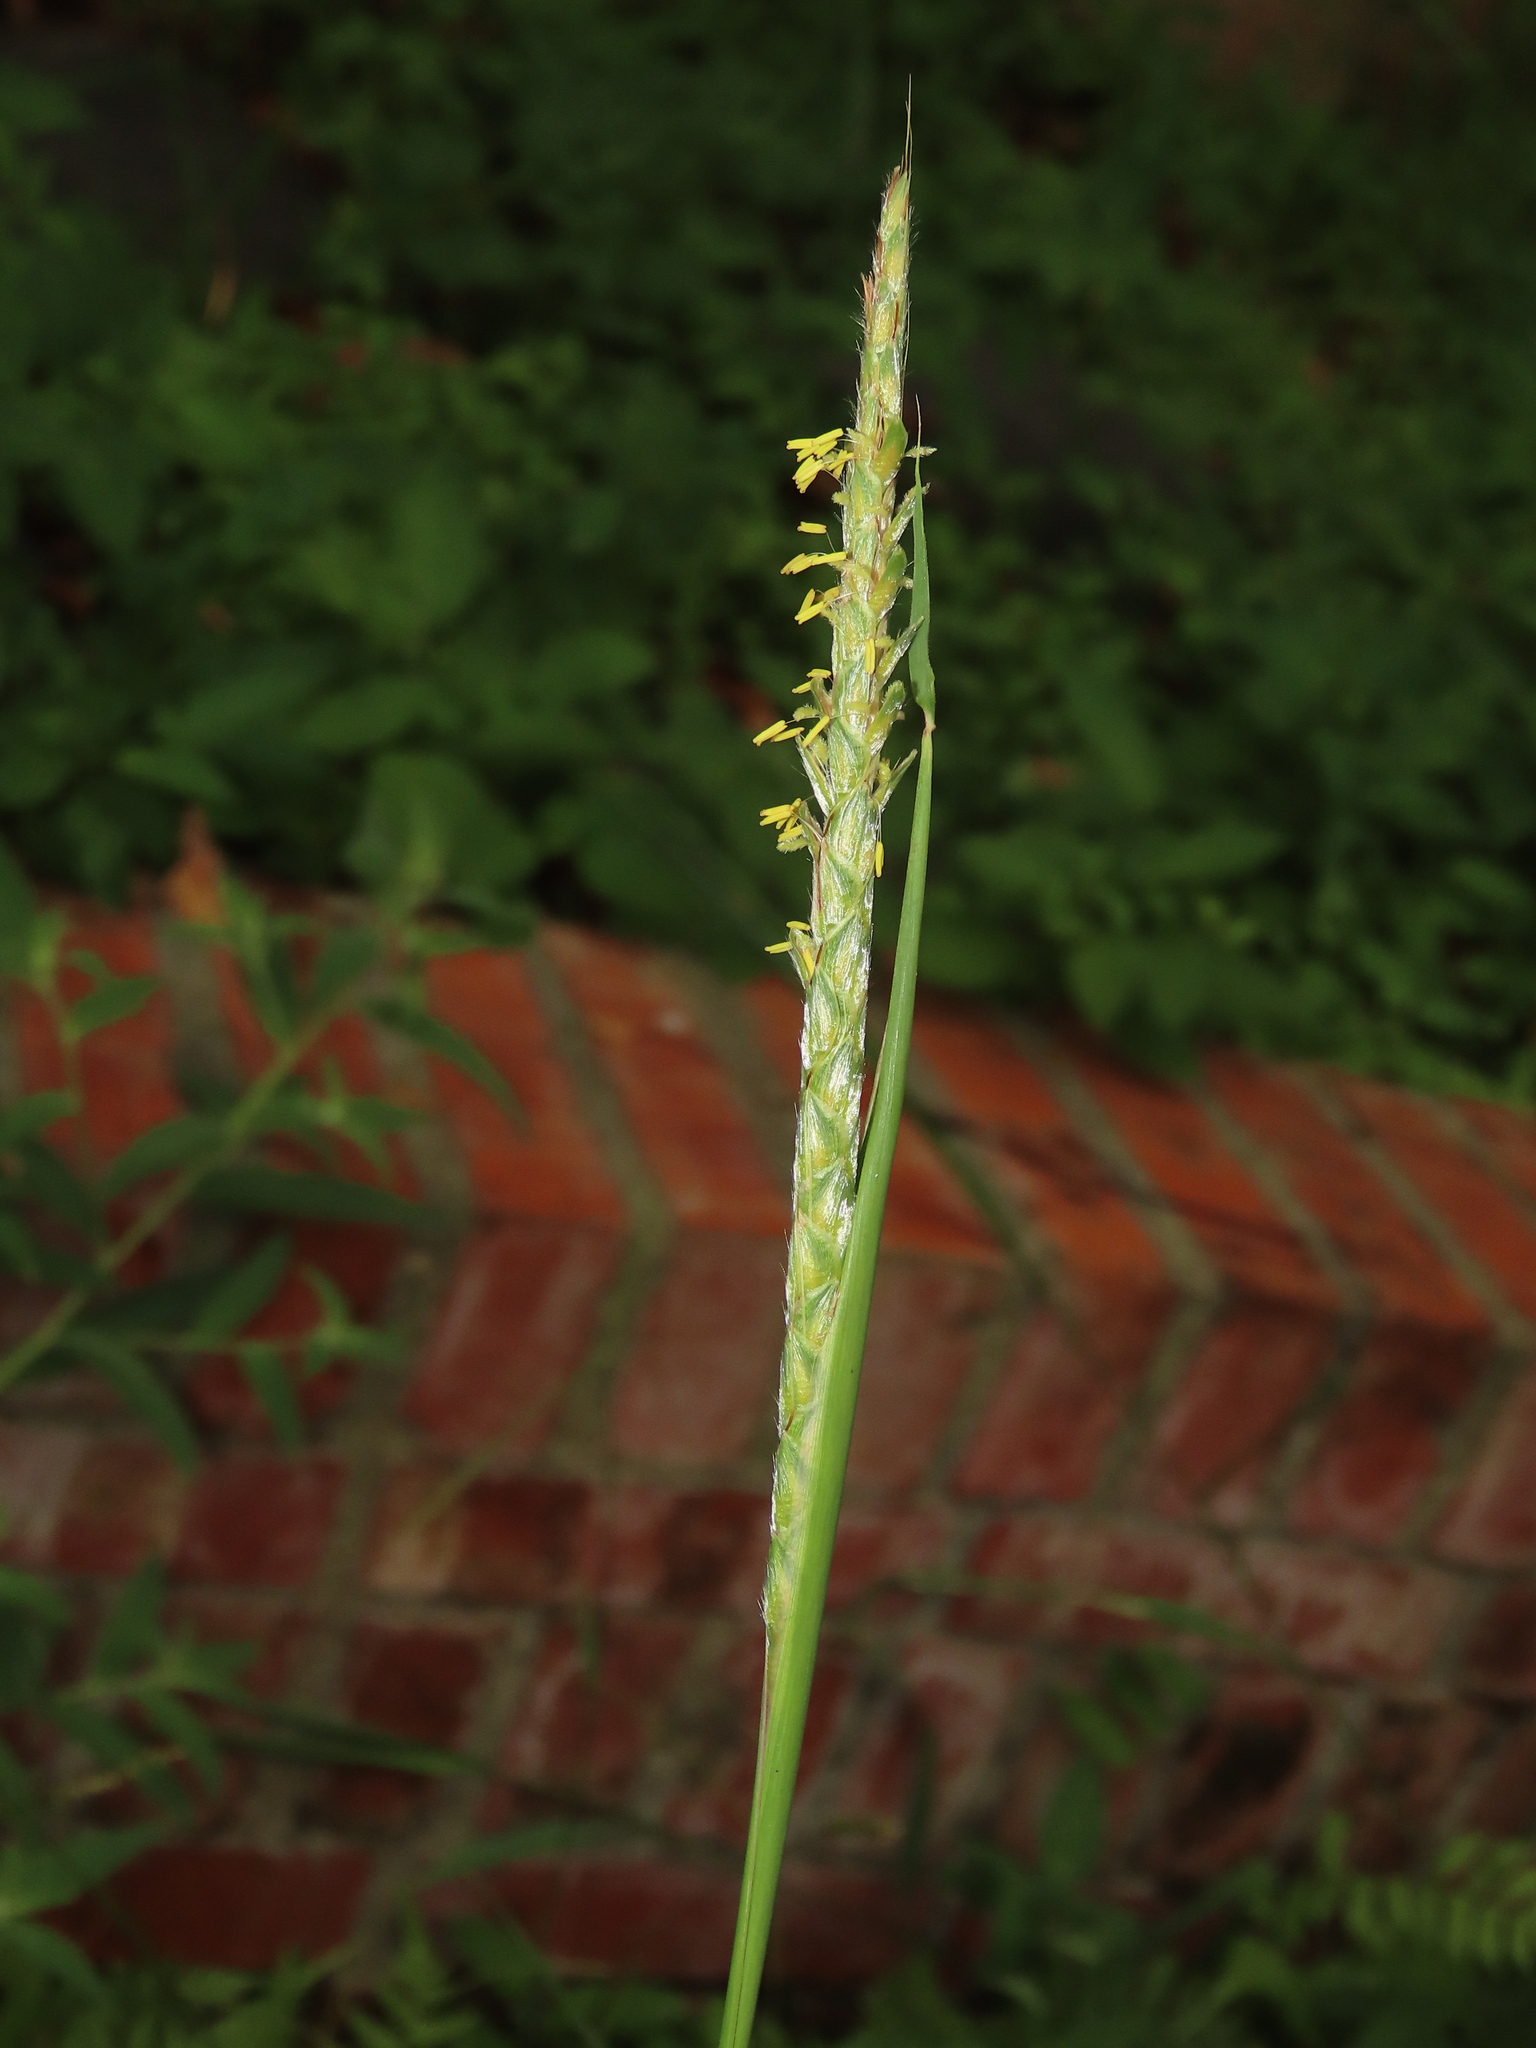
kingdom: Plantae
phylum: Tracheophyta
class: Liliopsida
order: Poales
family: Poaceae
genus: Ischaemum
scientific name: Ischaemum barbatum
